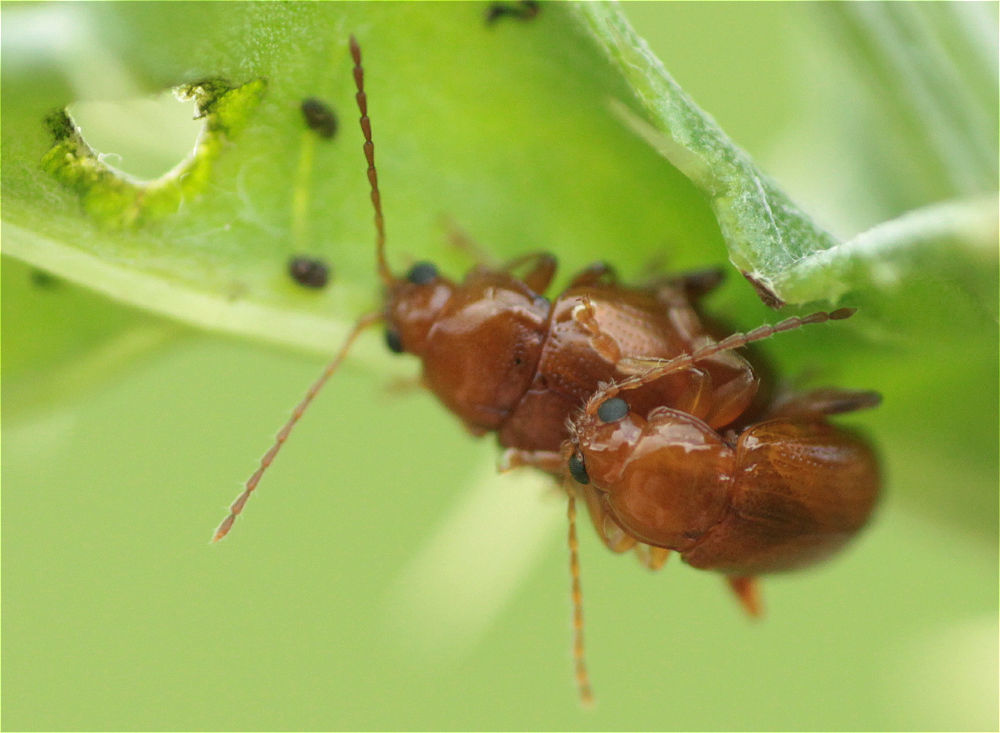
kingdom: Animalia
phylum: Arthropoda
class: Insecta
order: Coleoptera
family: Chrysomelidae
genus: Neocrepidodera
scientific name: Neocrepidodera ferruginea
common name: Wheat flea beetle
